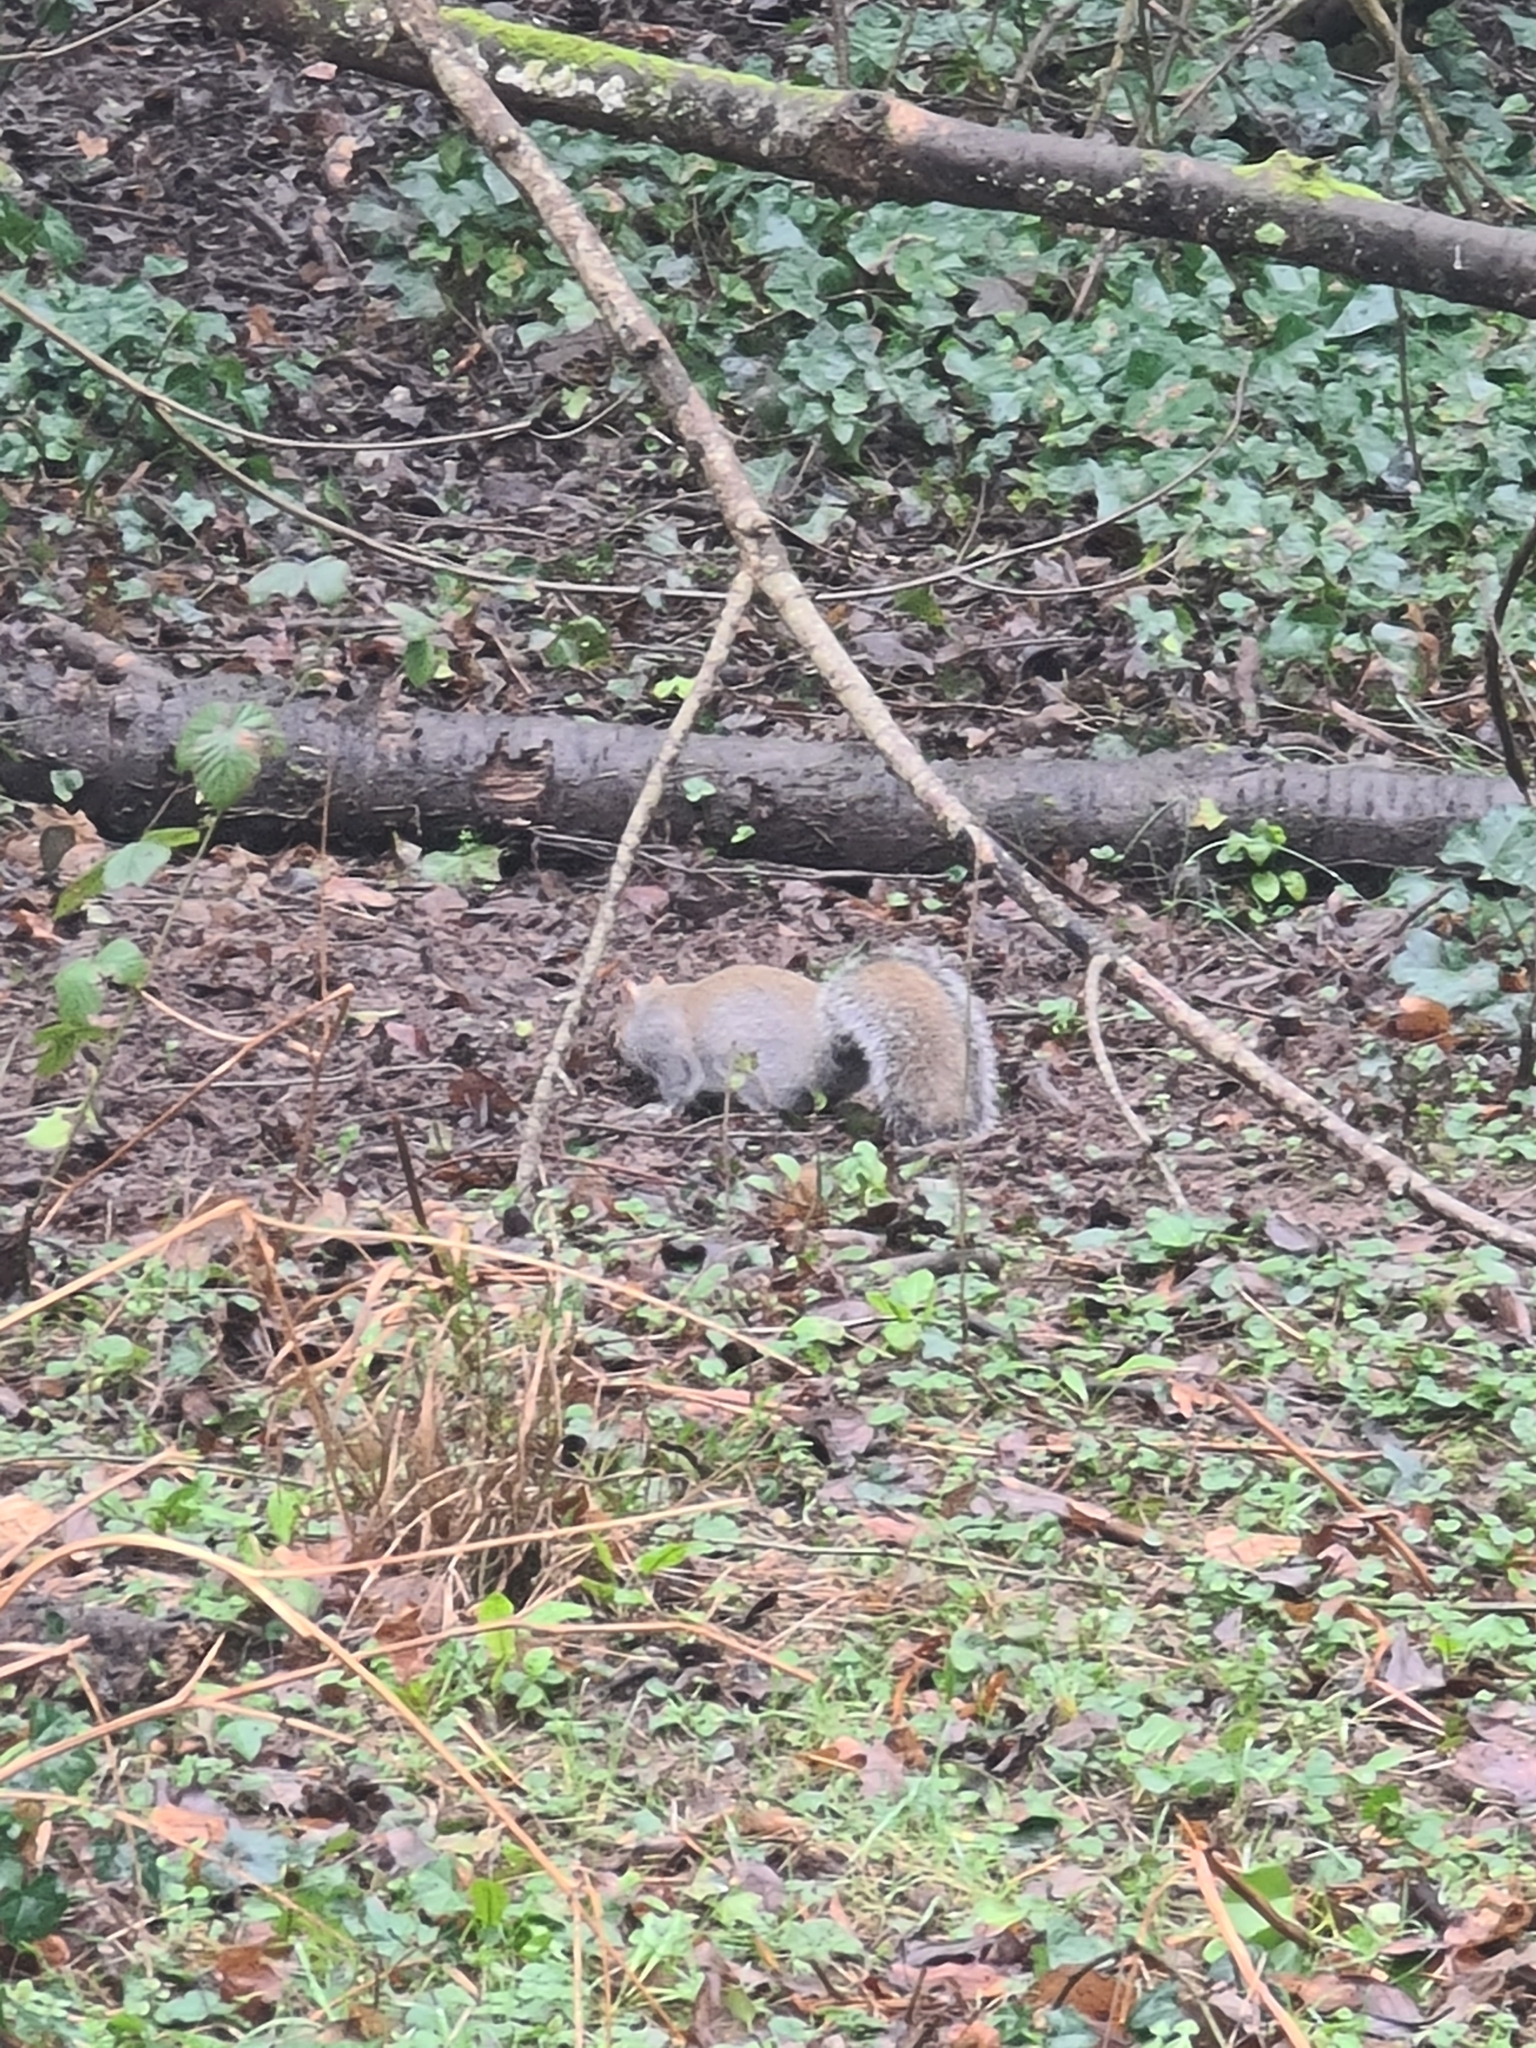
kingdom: Animalia
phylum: Chordata
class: Mammalia
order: Rodentia
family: Sciuridae
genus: Sciurus
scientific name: Sciurus carolinensis
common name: Eastern gray squirrel
